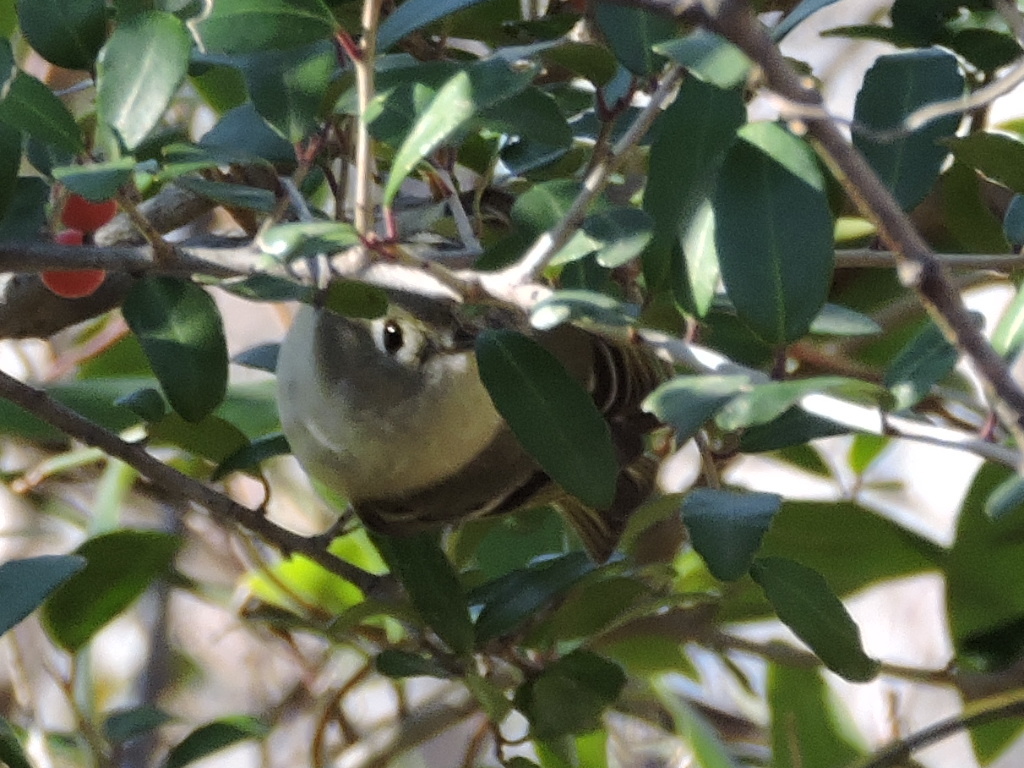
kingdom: Animalia
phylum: Chordata
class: Aves
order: Passeriformes
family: Regulidae
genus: Regulus
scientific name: Regulus calendula
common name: Ruby-crowned kinglet
